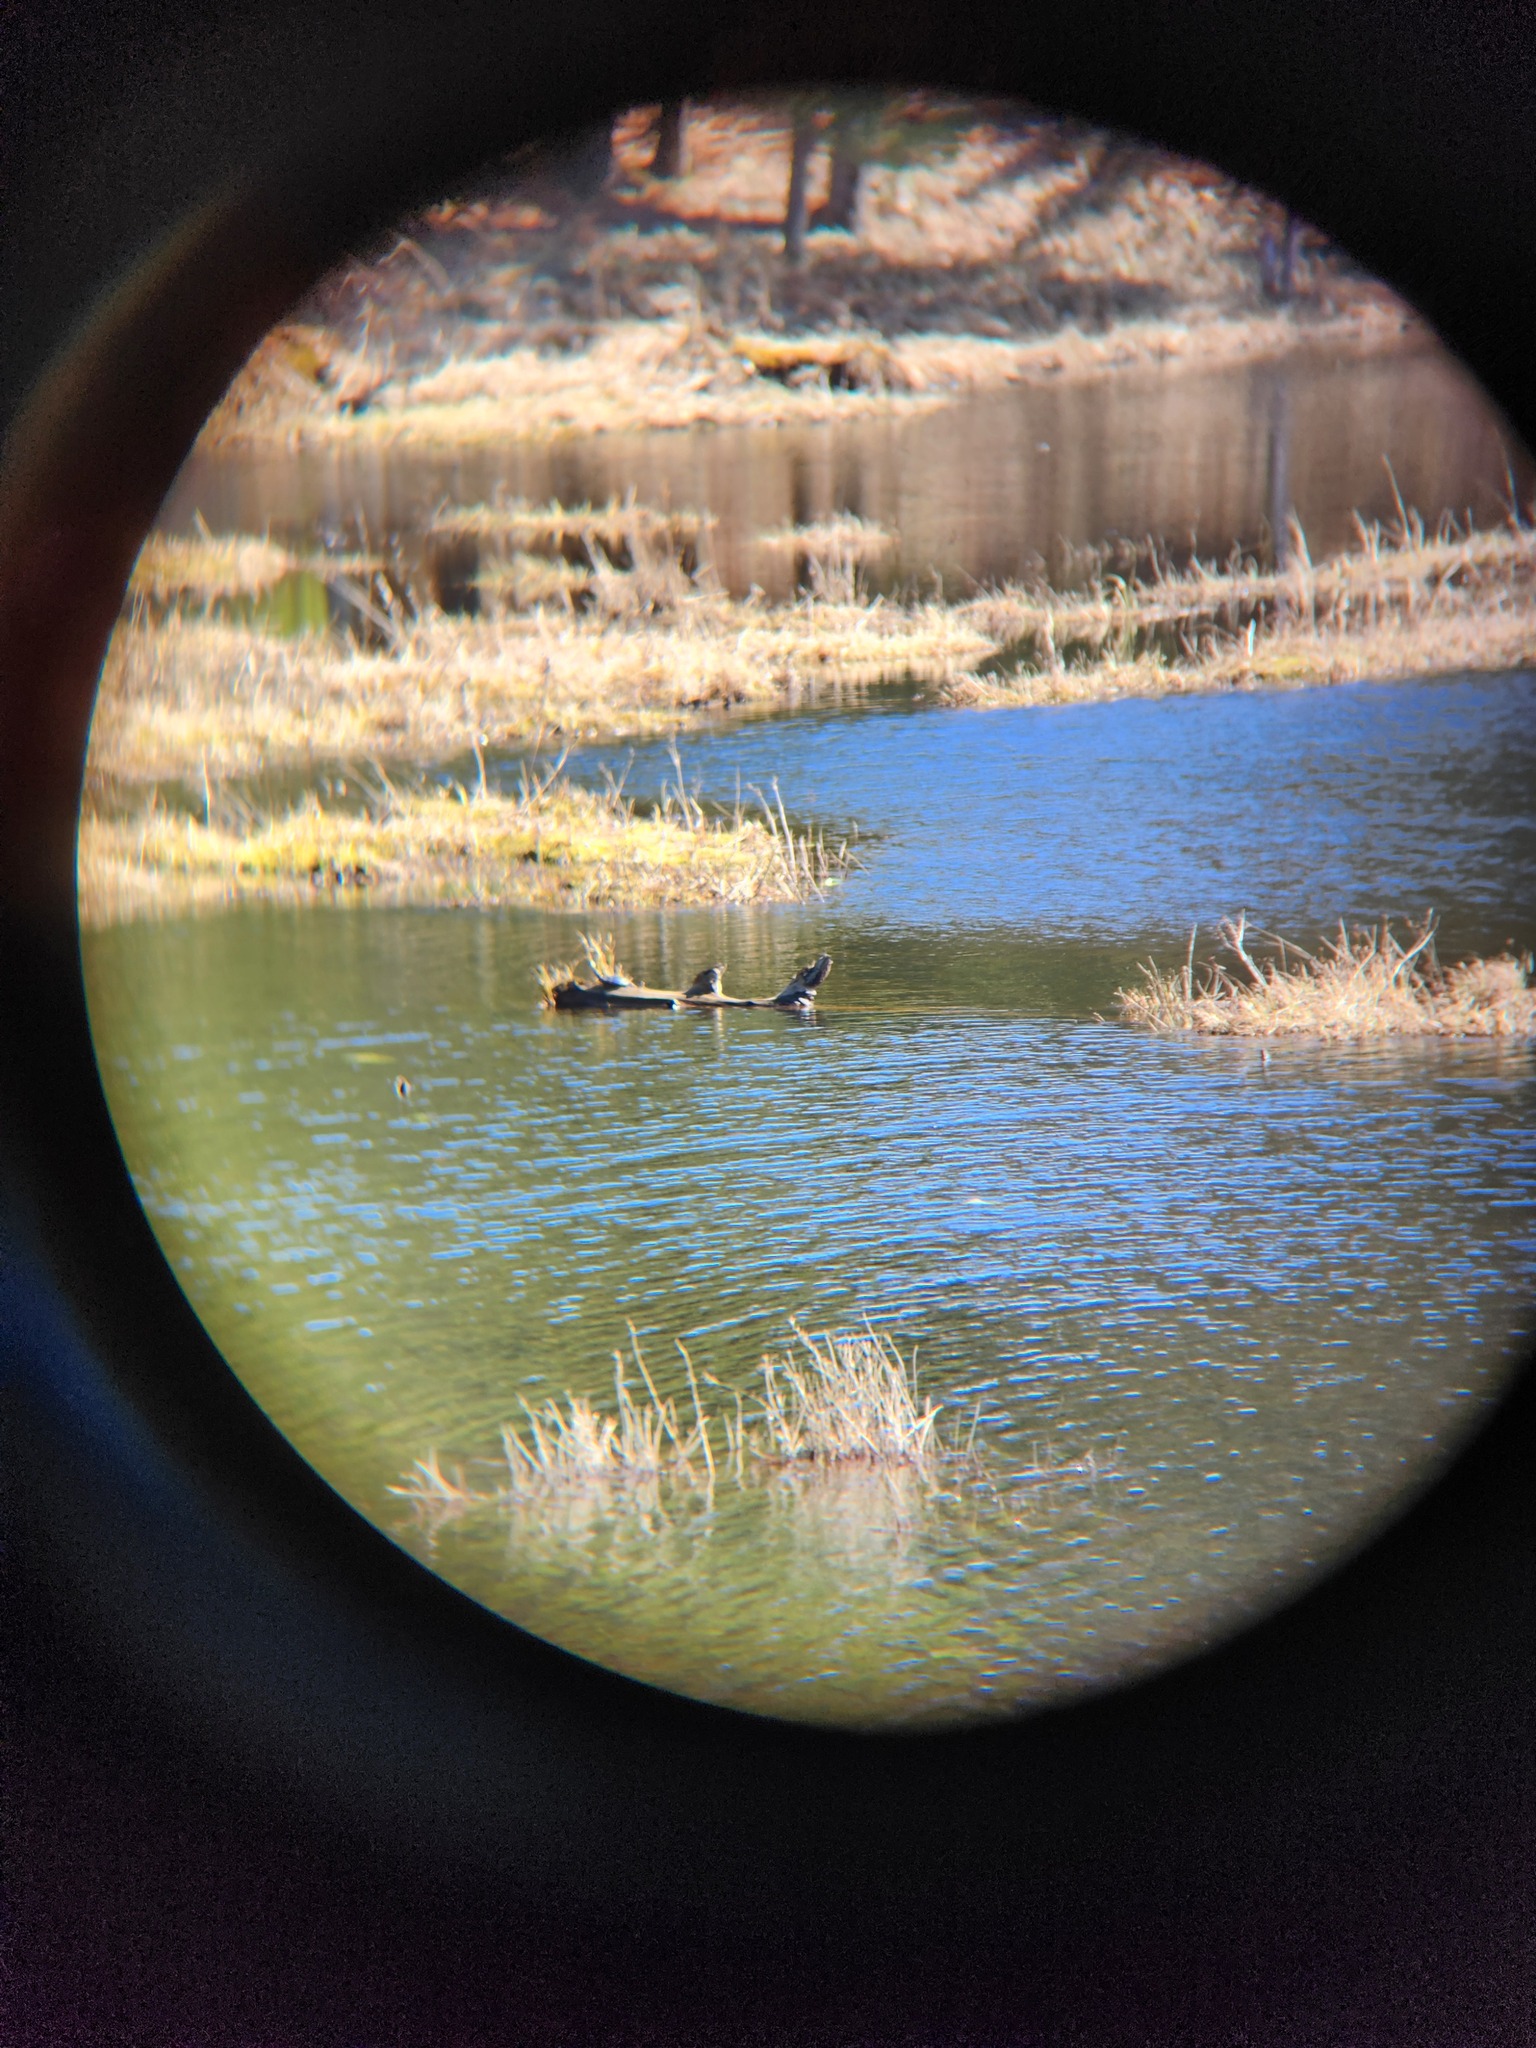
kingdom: Animalia
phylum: Chordata
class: Testudines
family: Emydidae
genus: Chrysemys
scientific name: Chrysemys picta
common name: Painted turtle
